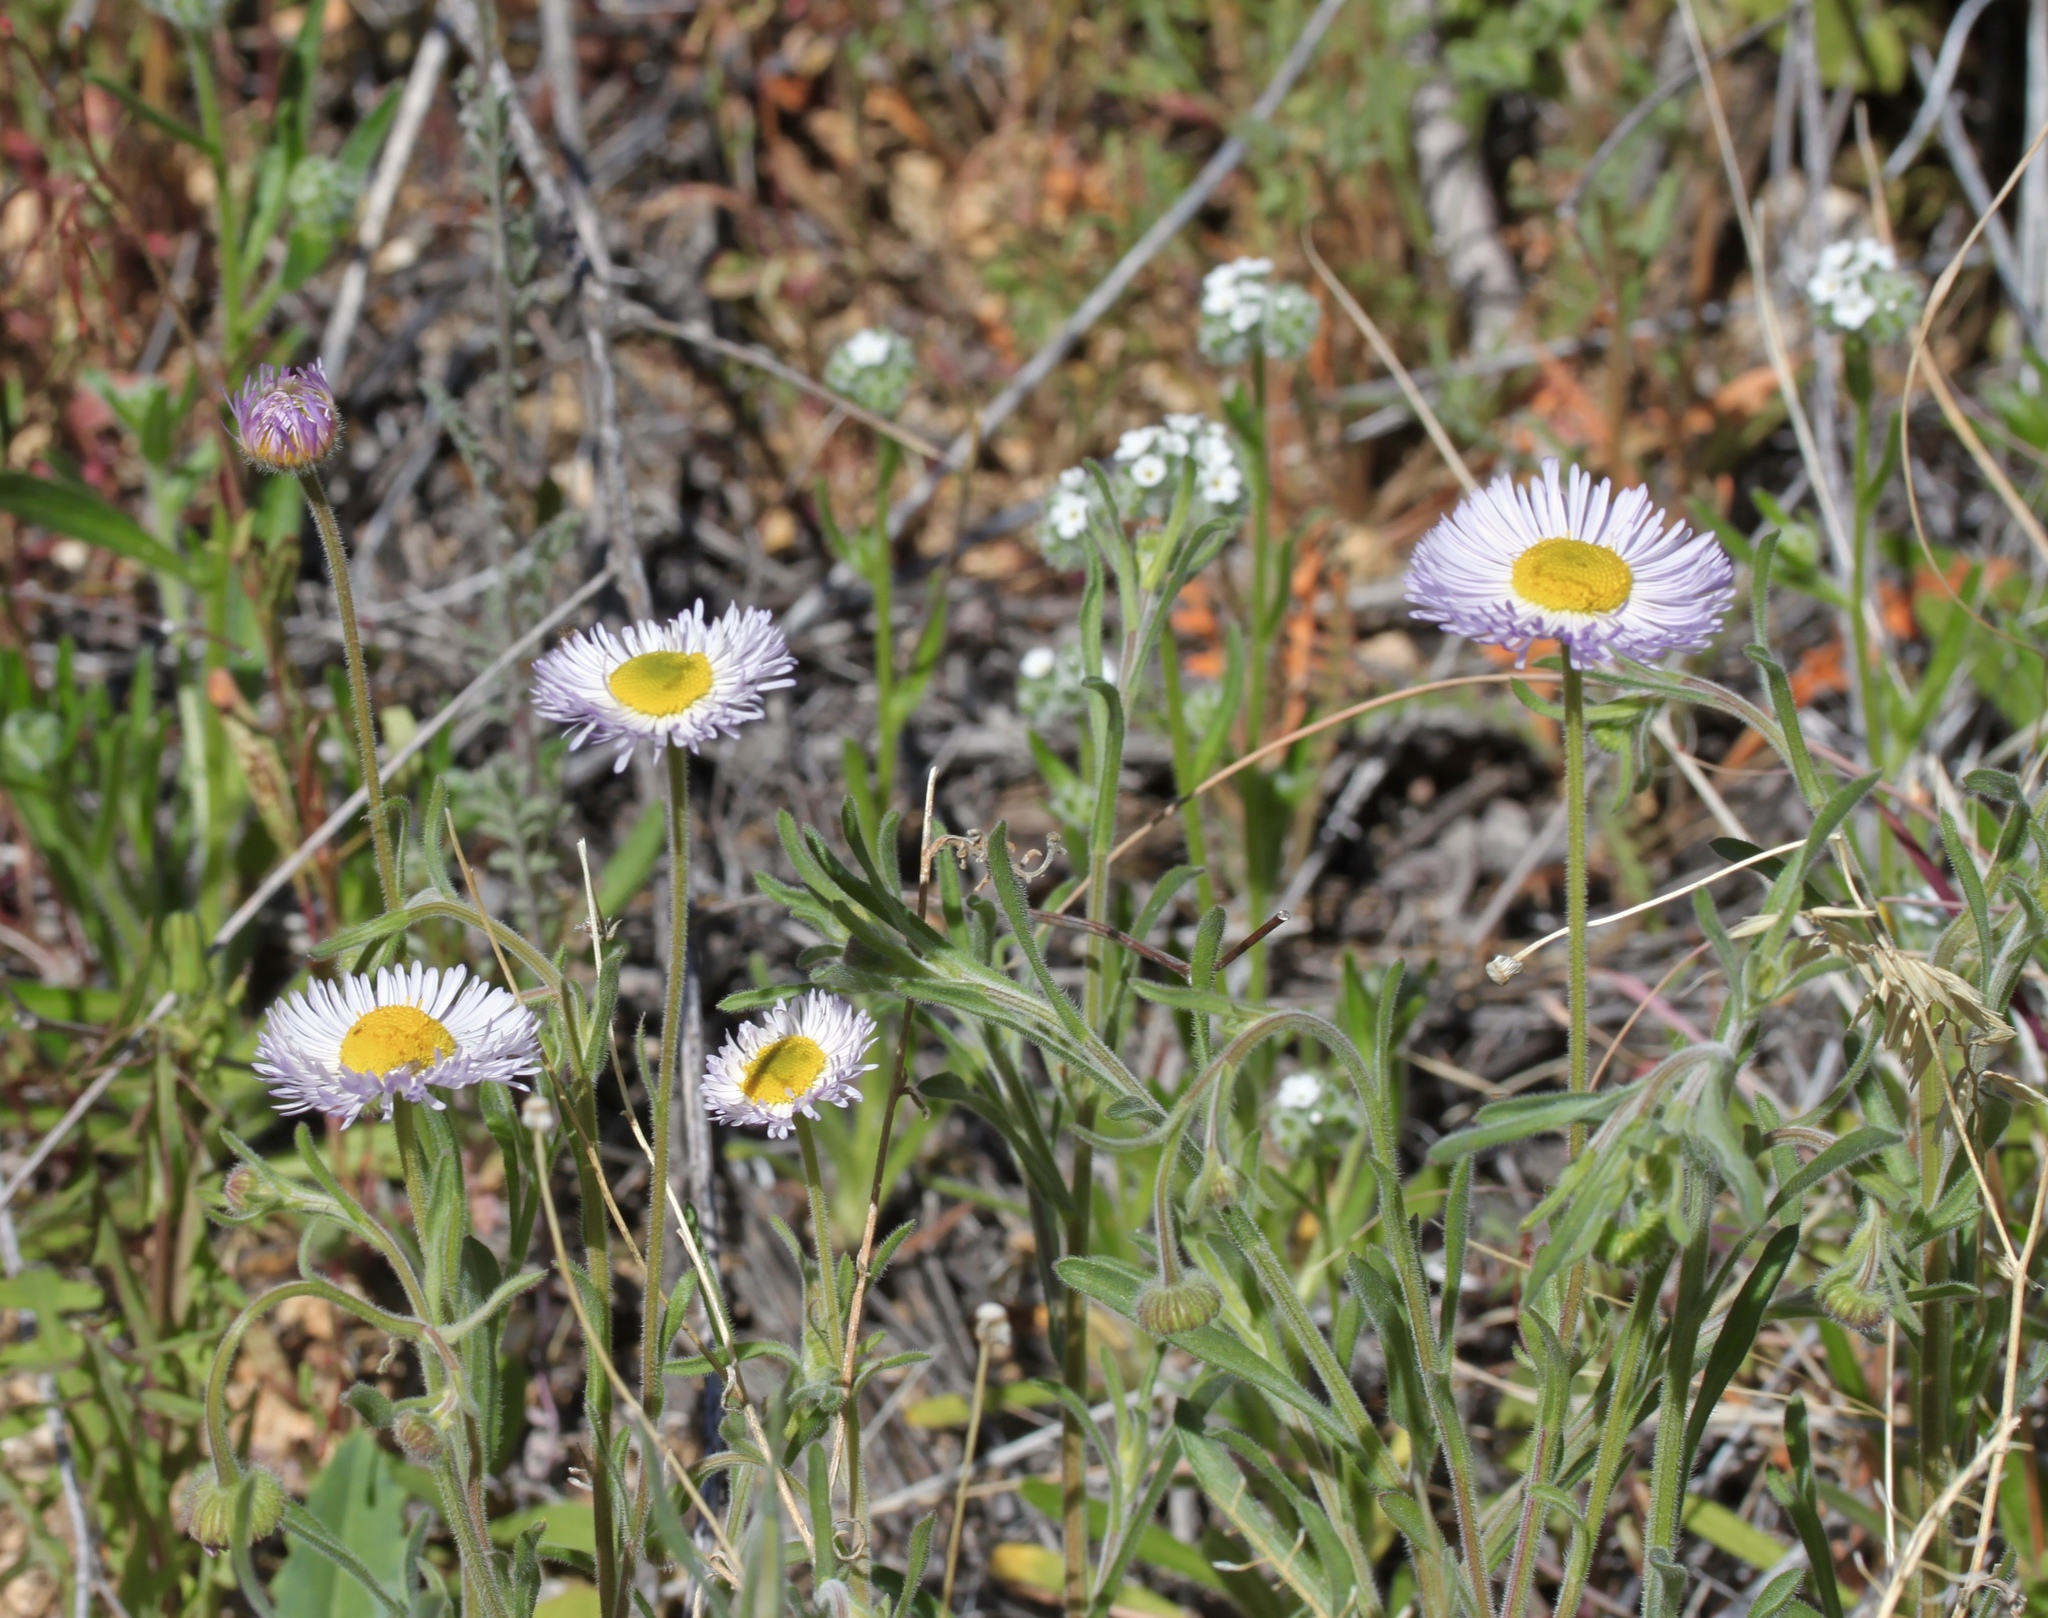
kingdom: Plantae
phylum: Tracheophyta
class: Magnoliopsida
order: Asterales
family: Asteraceae
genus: Erigeron
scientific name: Erigeron divergens
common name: Diffuse fleabane
